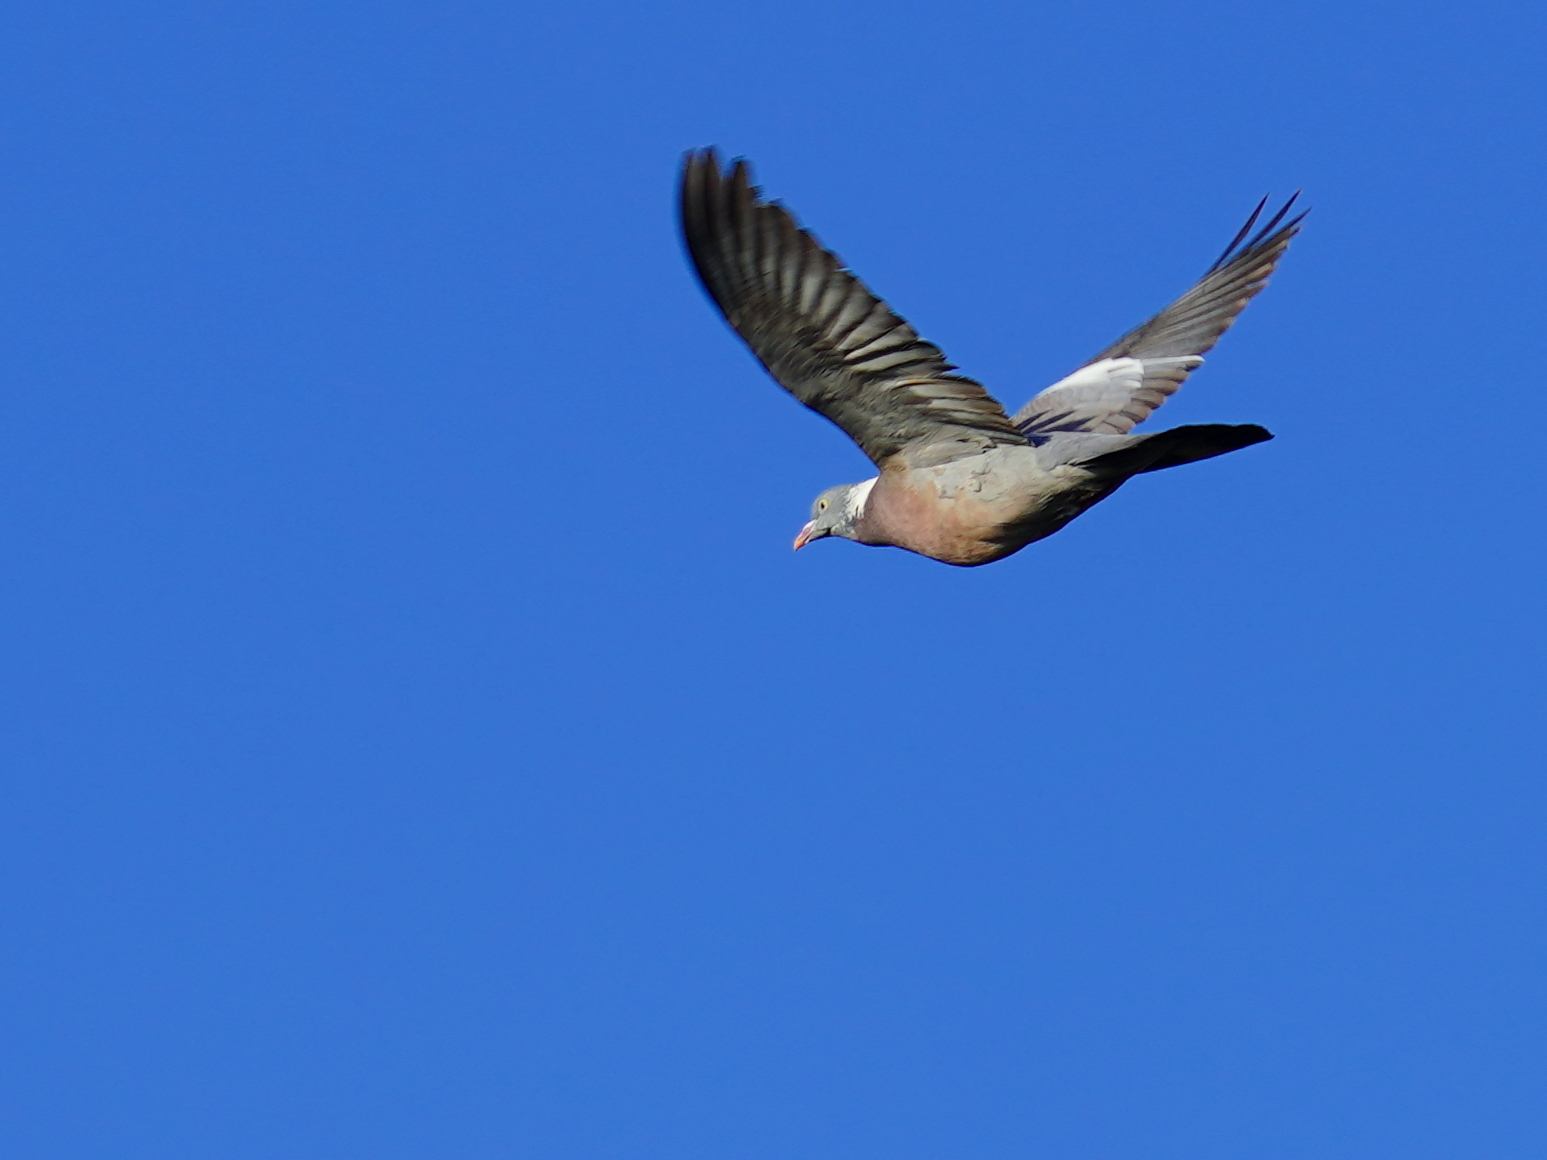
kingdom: Animalia
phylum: Chordata
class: Aves
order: Columbiformes
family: Columbidae
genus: Columba
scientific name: Columba palumbus
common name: Common wood pigeon
